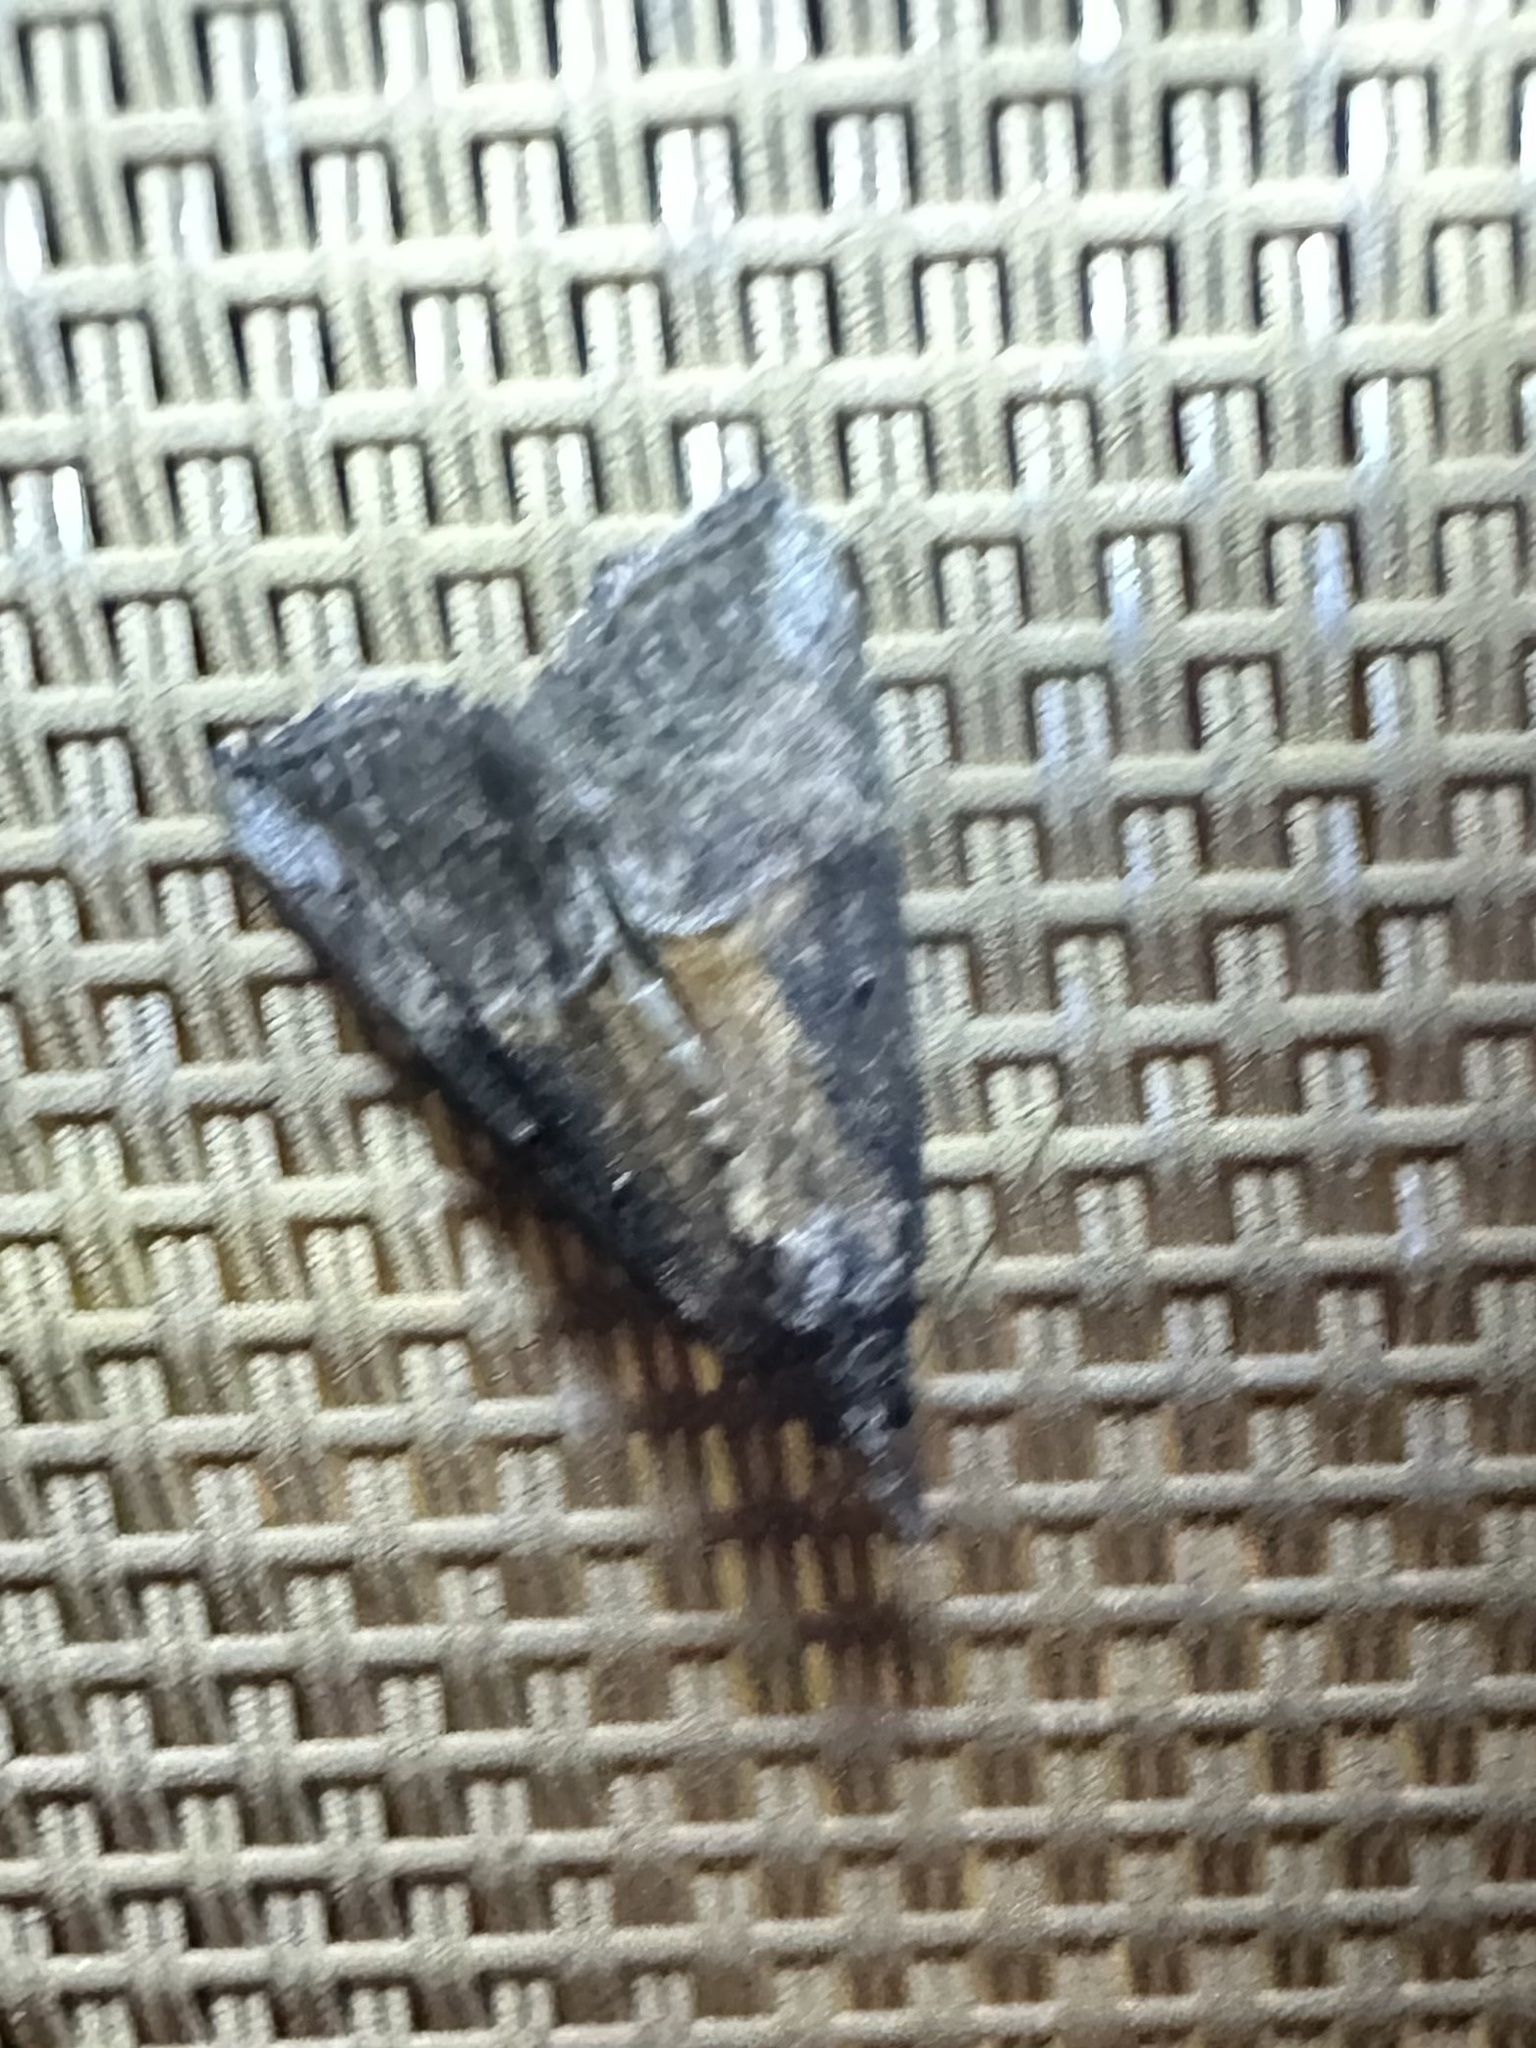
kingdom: Animalia
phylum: Arthropoda
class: Insecta
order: Lepidoptera
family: Erebidae
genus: Hypena
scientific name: Hypena scabra
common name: Green cloverworm
